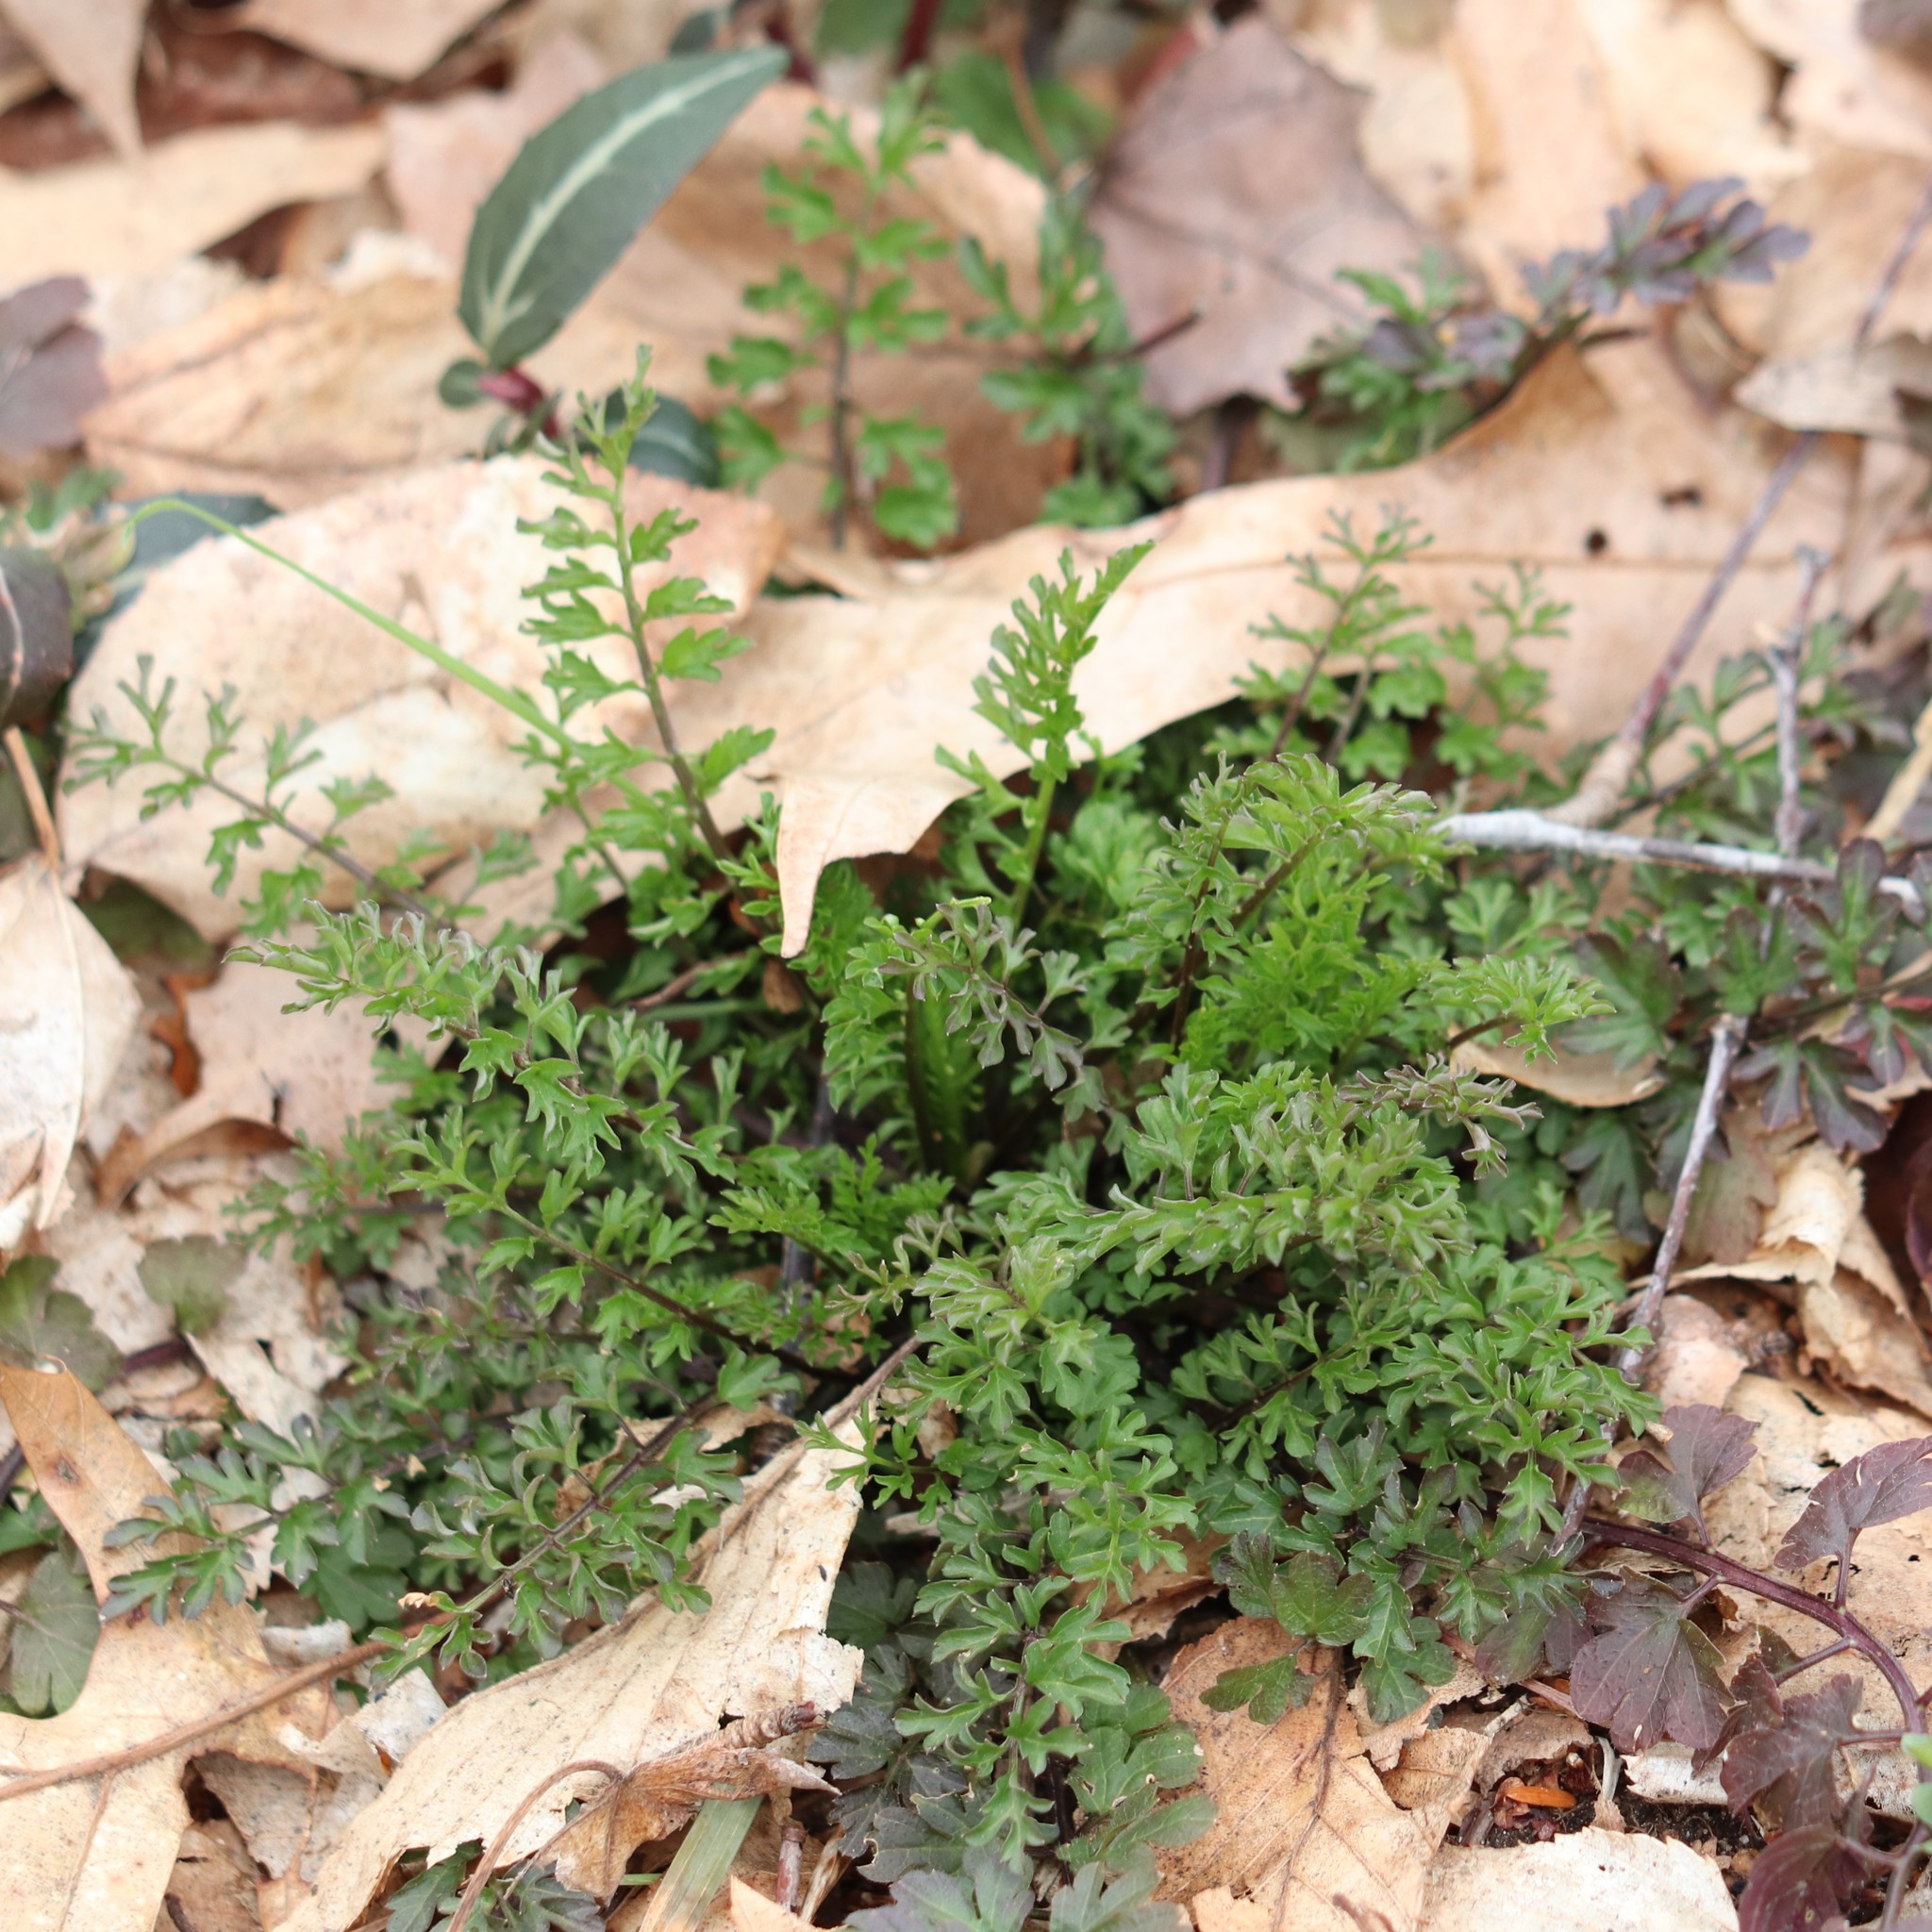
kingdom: Plantae
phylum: Tracheophyta
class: Magnoliopsida
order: Brassicales
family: Brassicaceae
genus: Cardamine
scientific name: Cardamine impatiens
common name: Narrow-leaved bitter-cress
